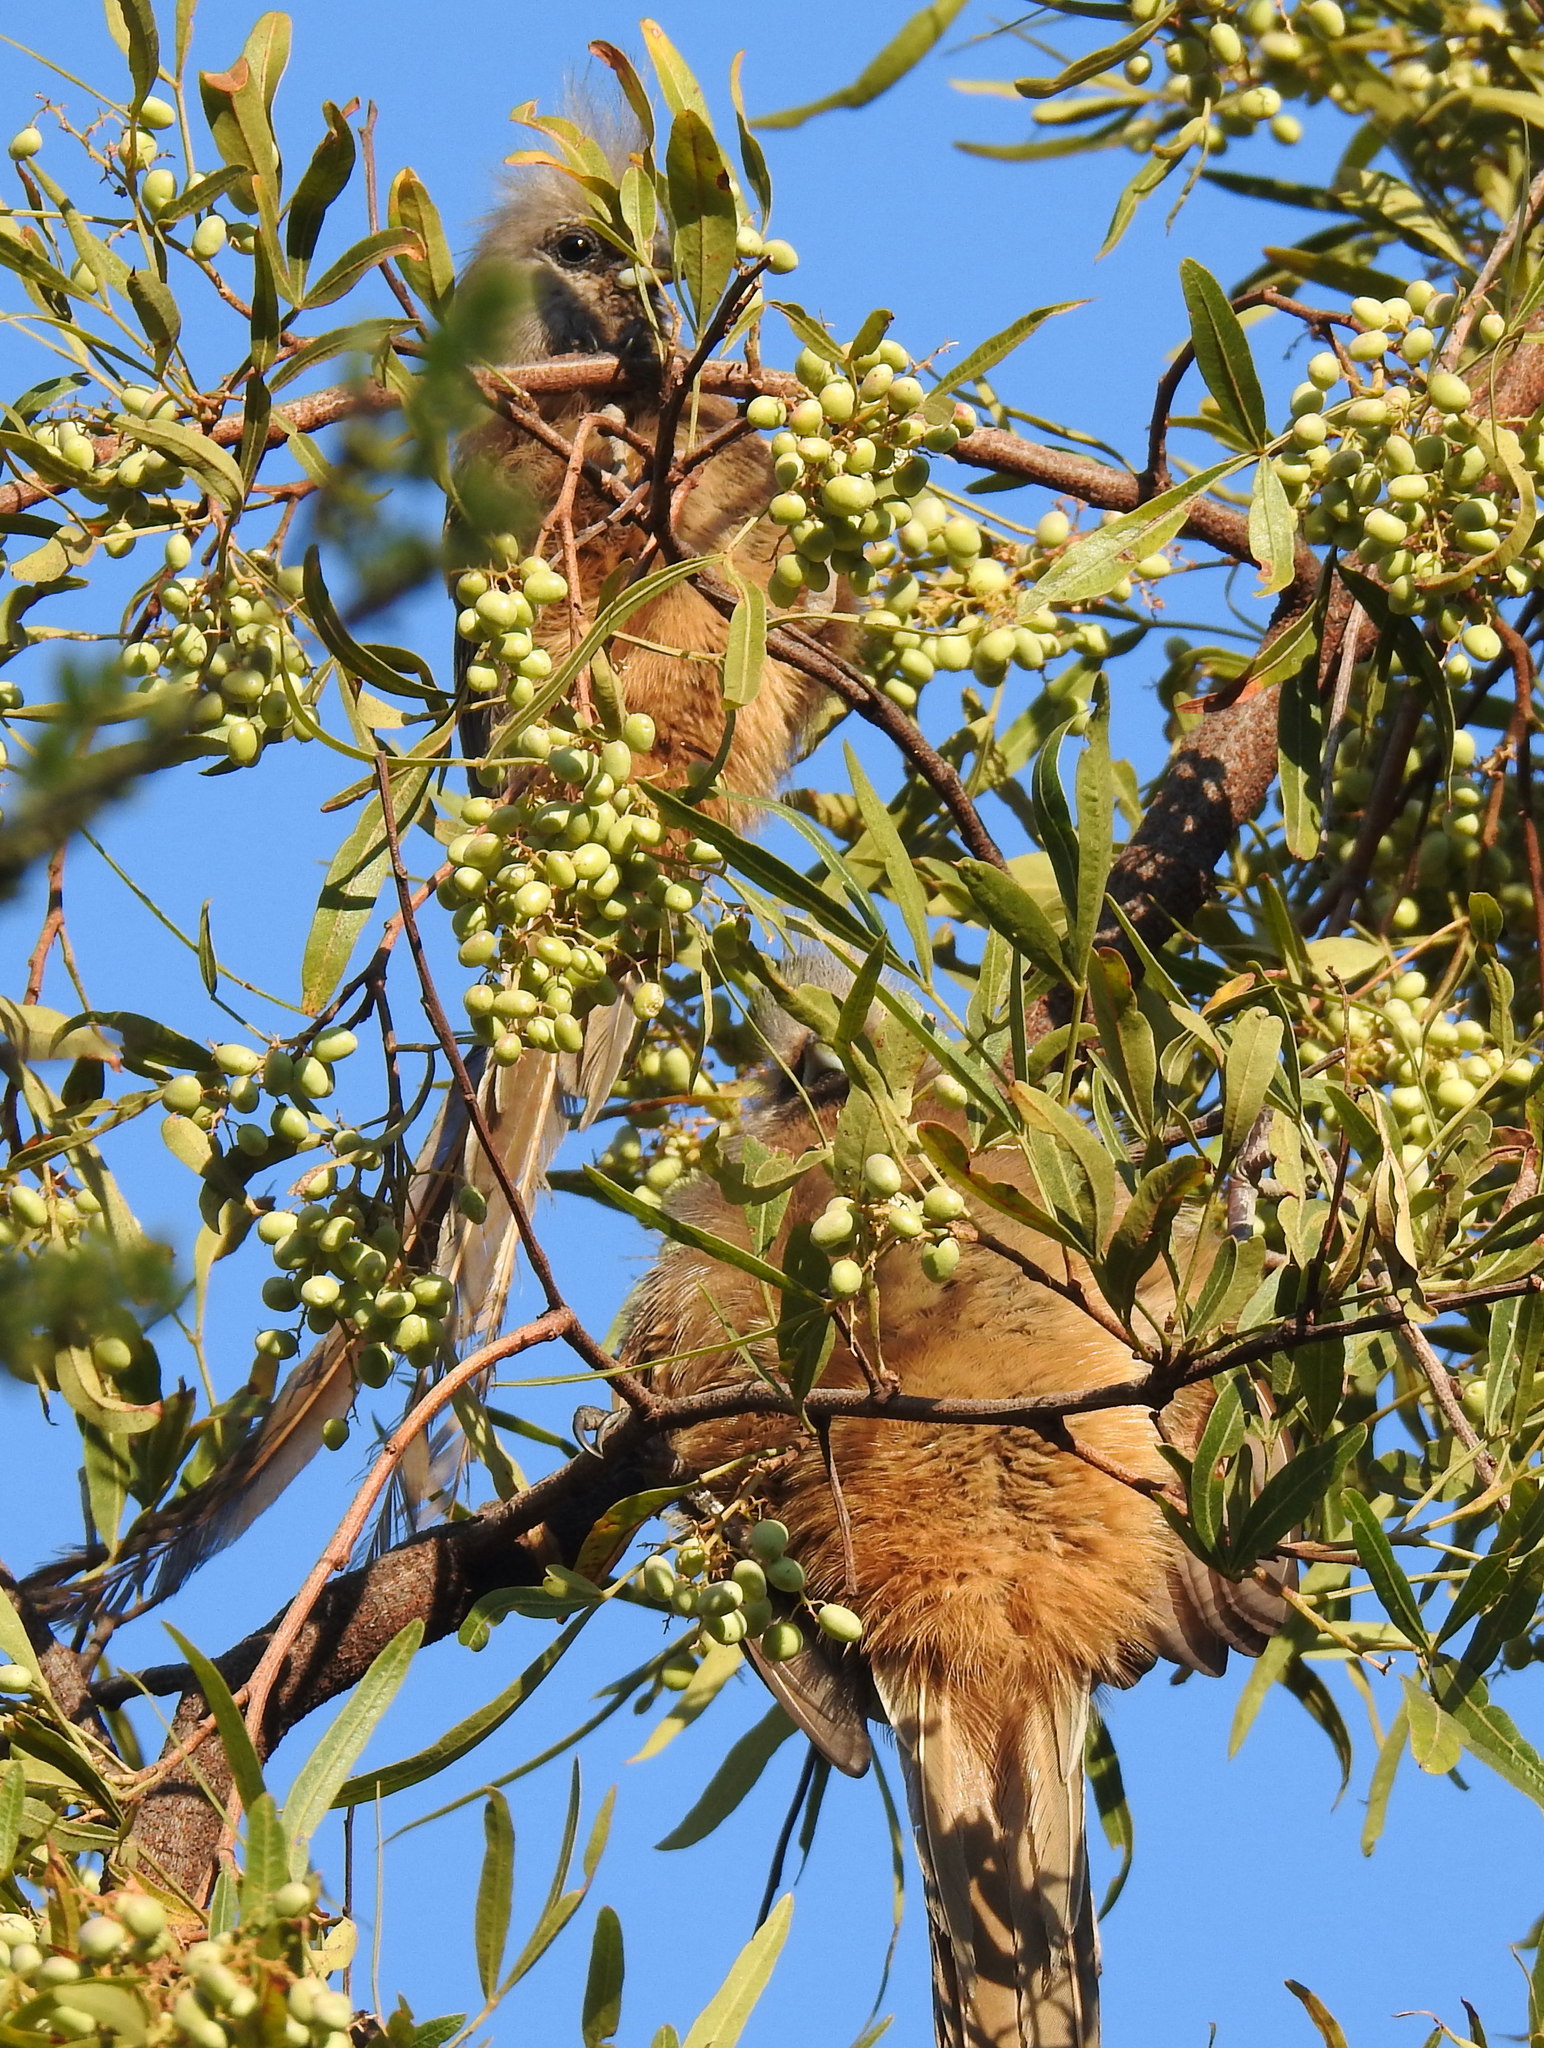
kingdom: Animalia
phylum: Chordata
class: Aves
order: Coliiformes
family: Coliidae
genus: Colius
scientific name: Colius striatus
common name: Speckled mousebird
